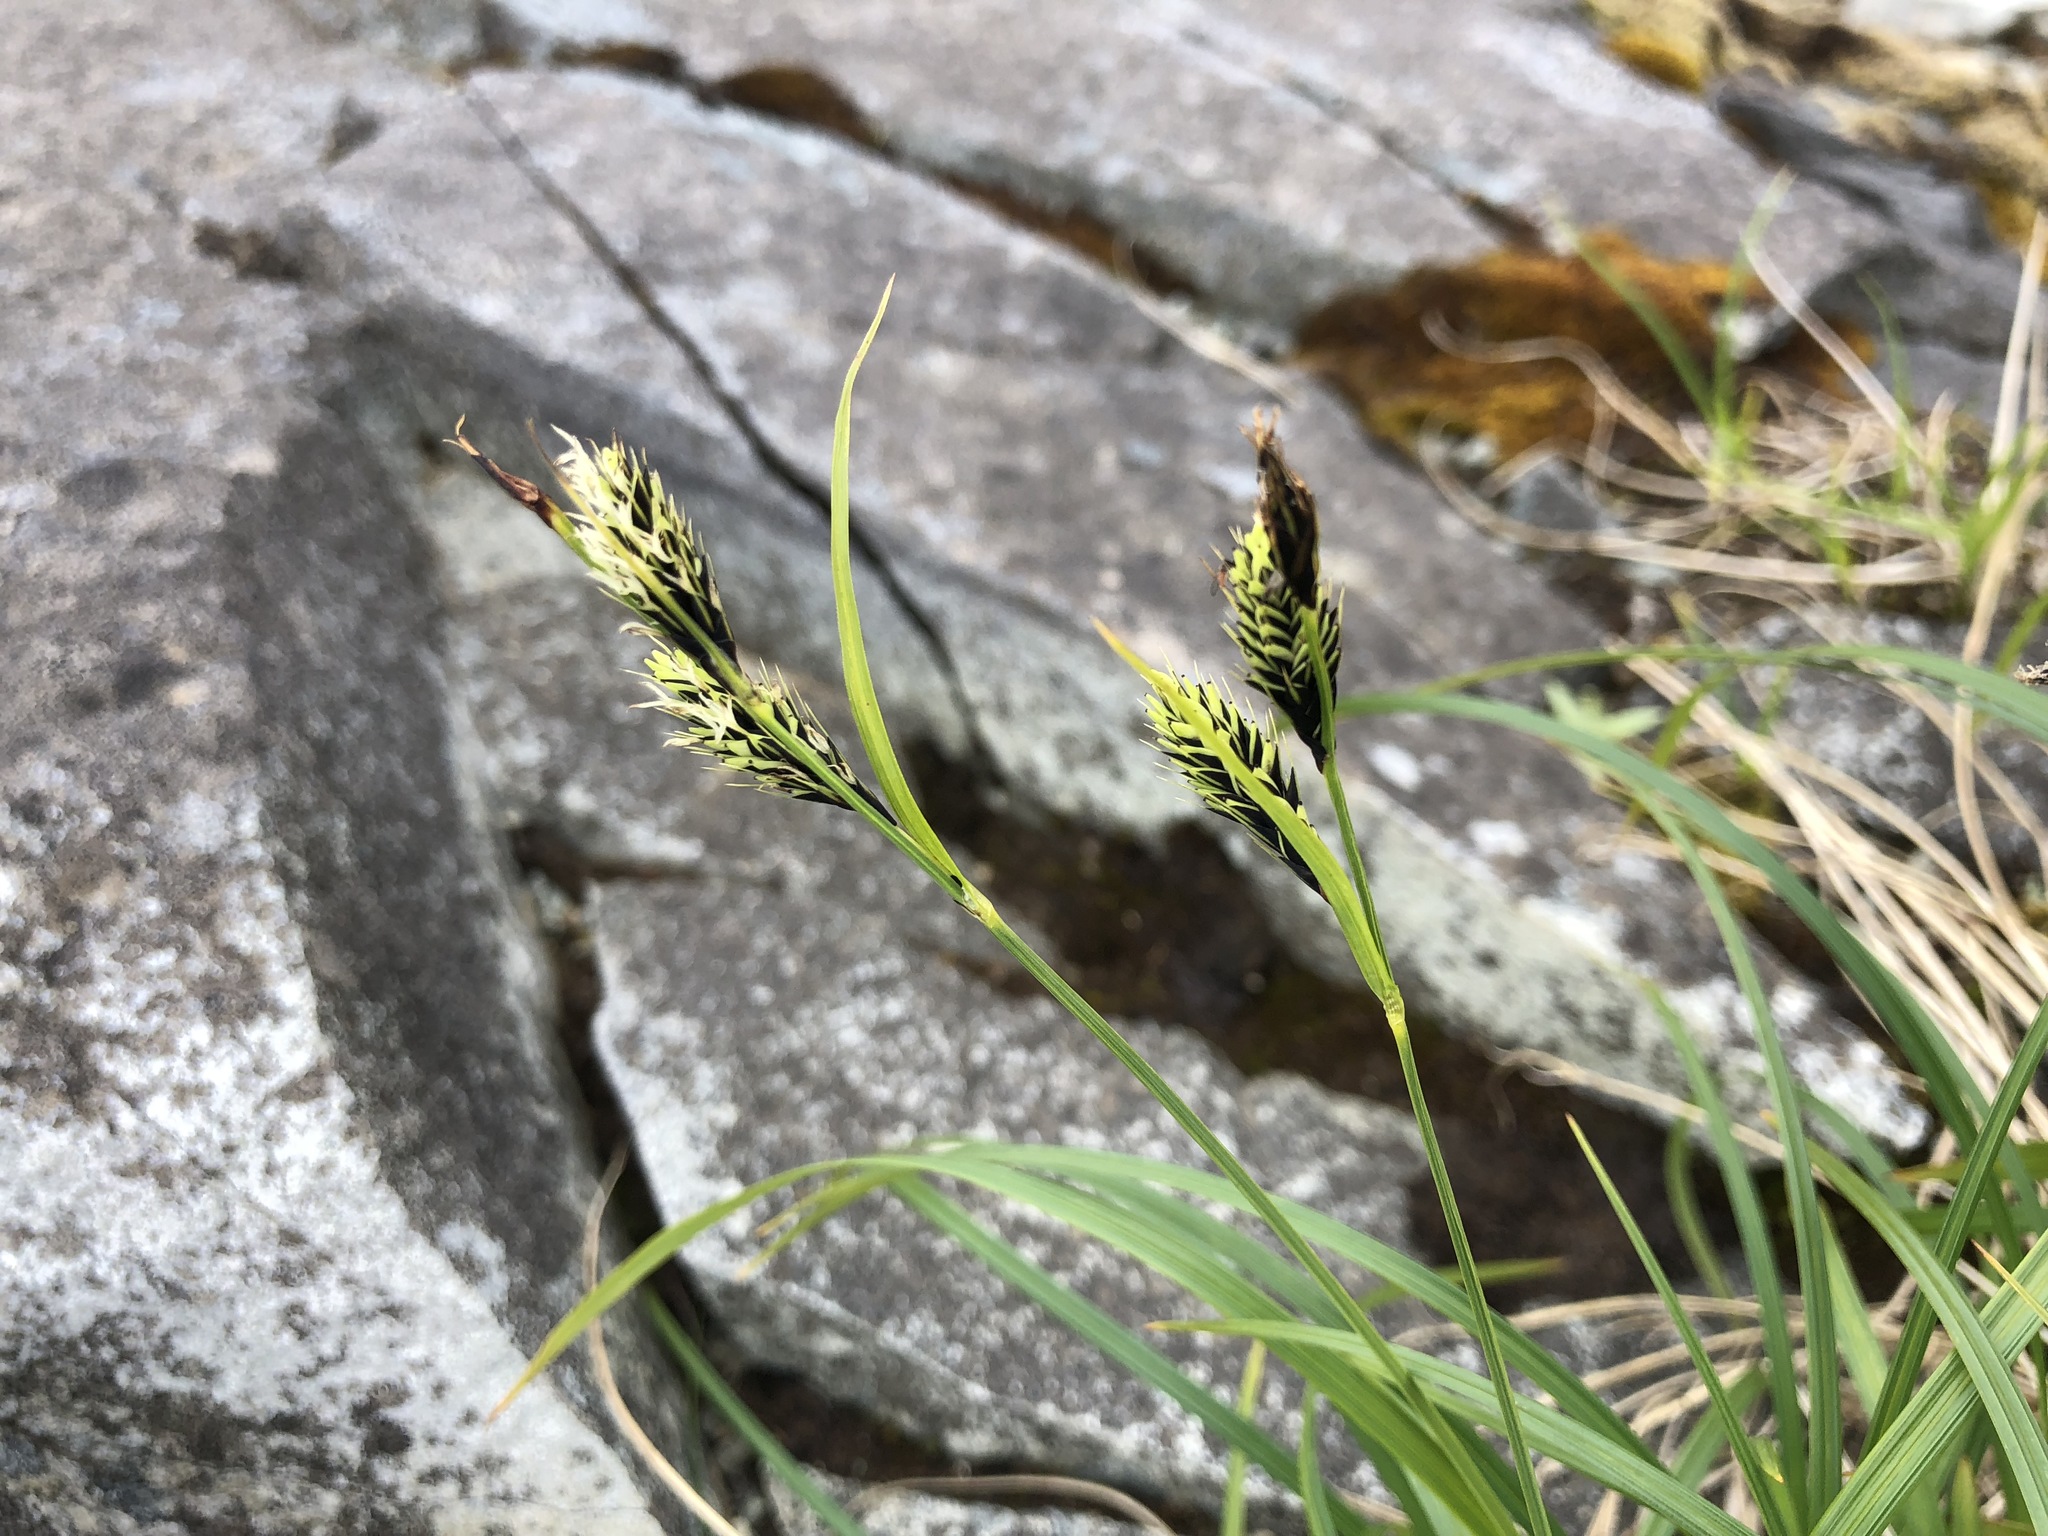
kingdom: Plantae
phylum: Tracheophyta
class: Liliopsida
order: Poales
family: Cyperaceae
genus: Carex
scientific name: Carex macrochaeta
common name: Alaska large awn sedge
